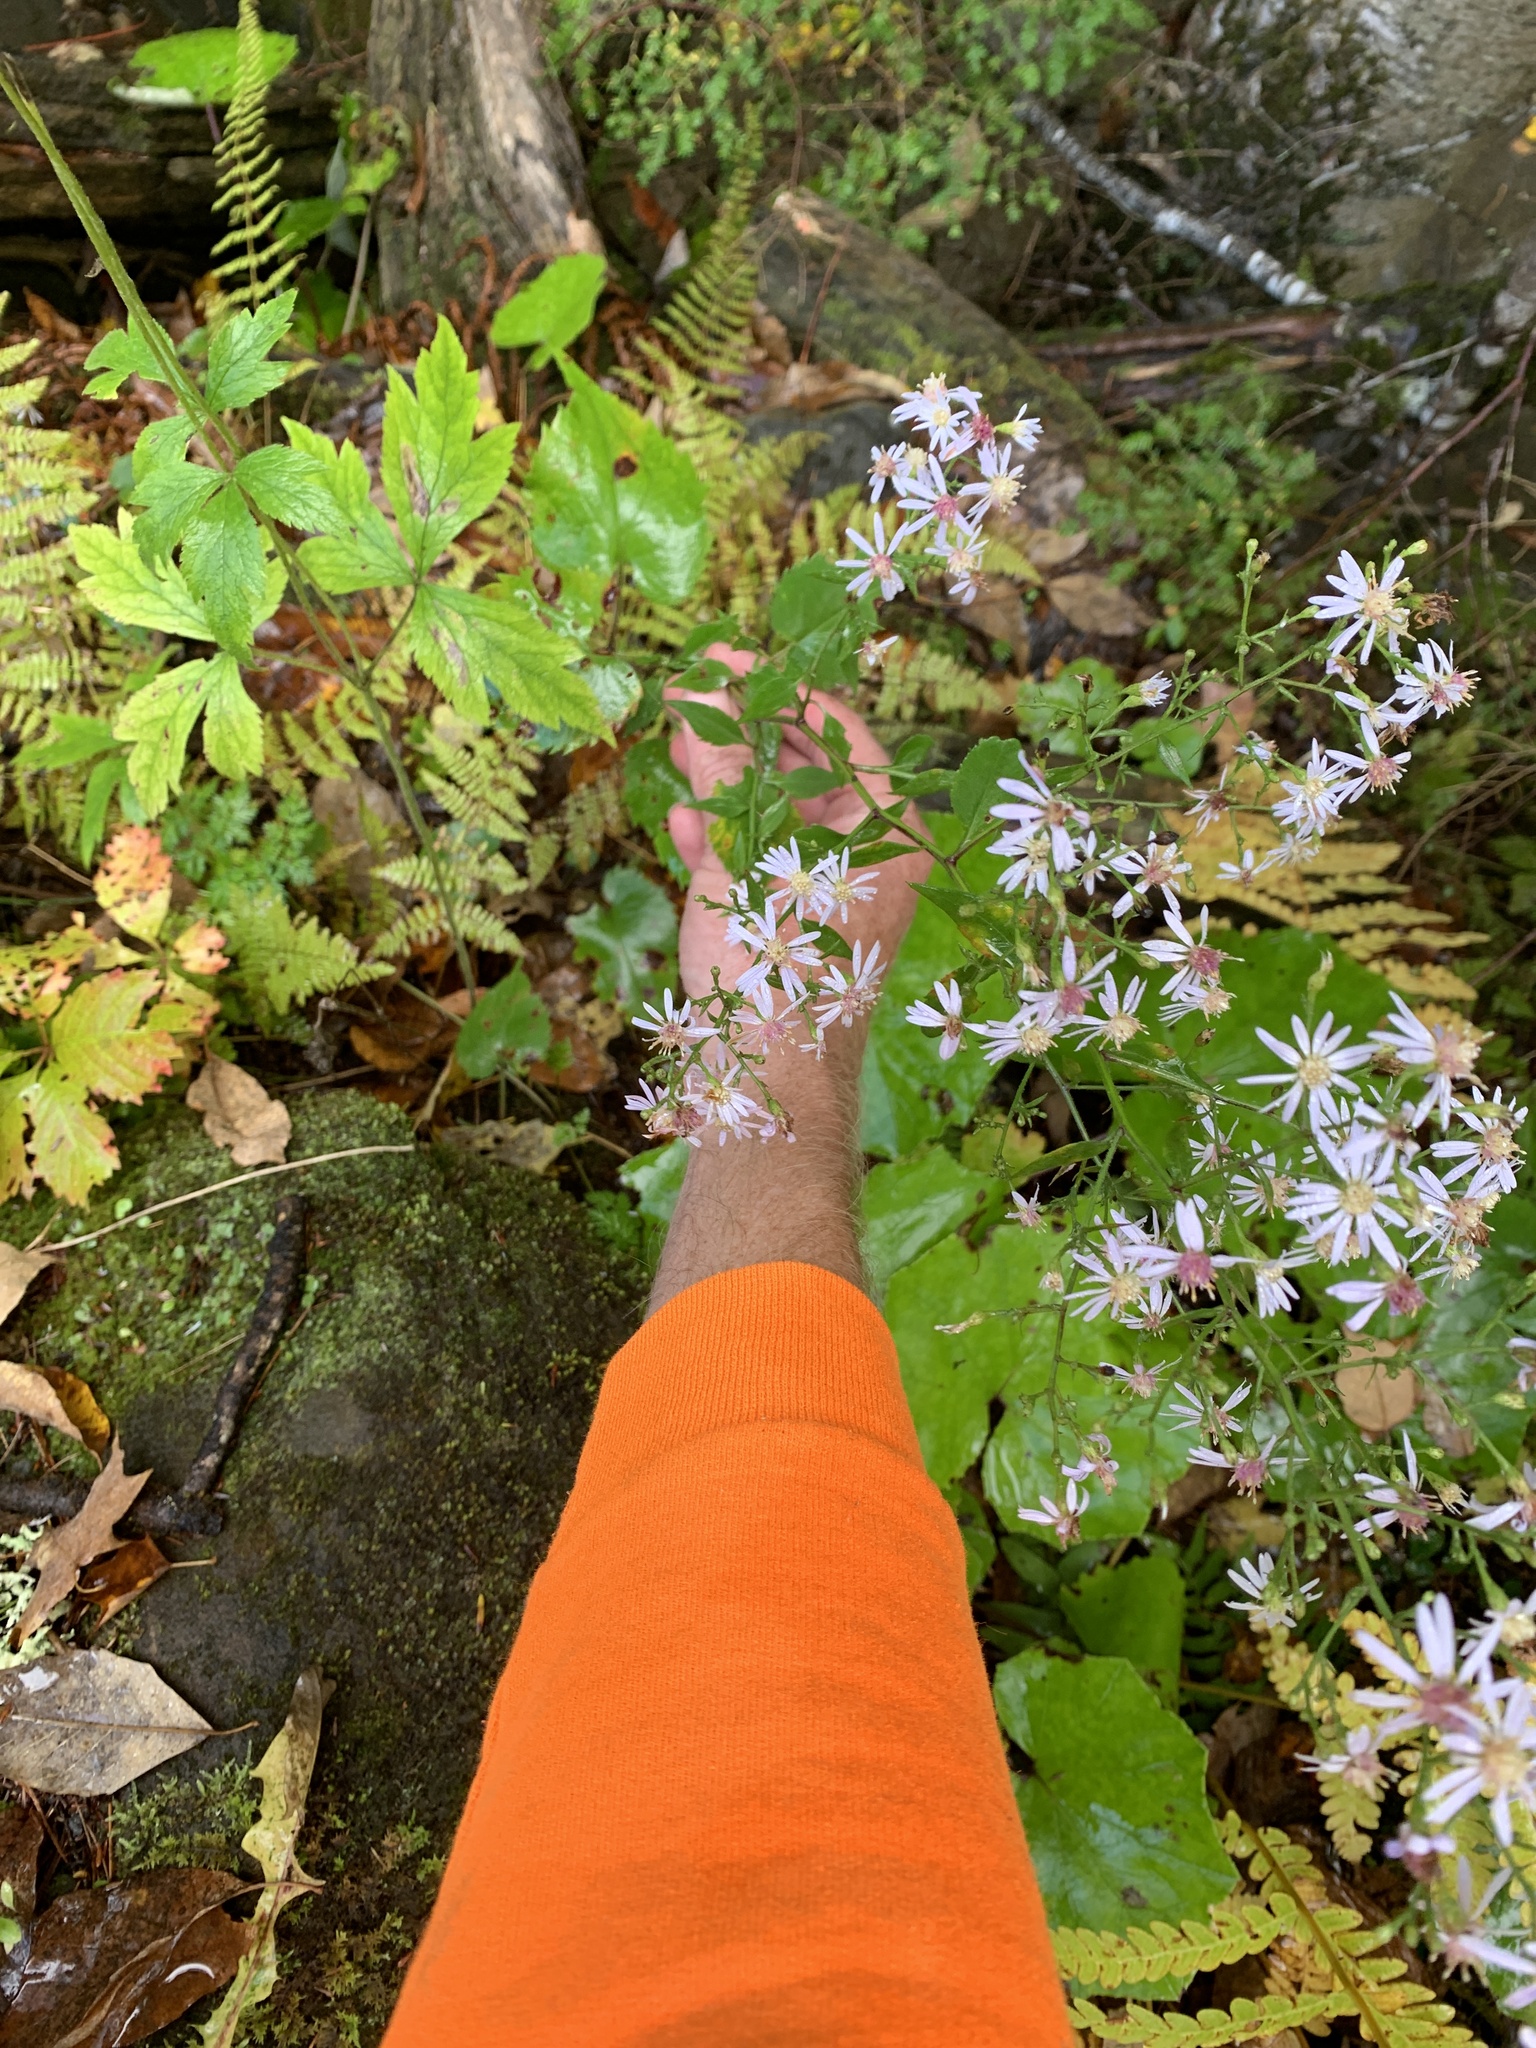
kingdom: Plantae
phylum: Tracheophyta
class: Magnoliopsida
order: Asterales
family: Asteraceae
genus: Symphyotrichum
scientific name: Symphyotrichum cordifolium
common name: Beeweed
